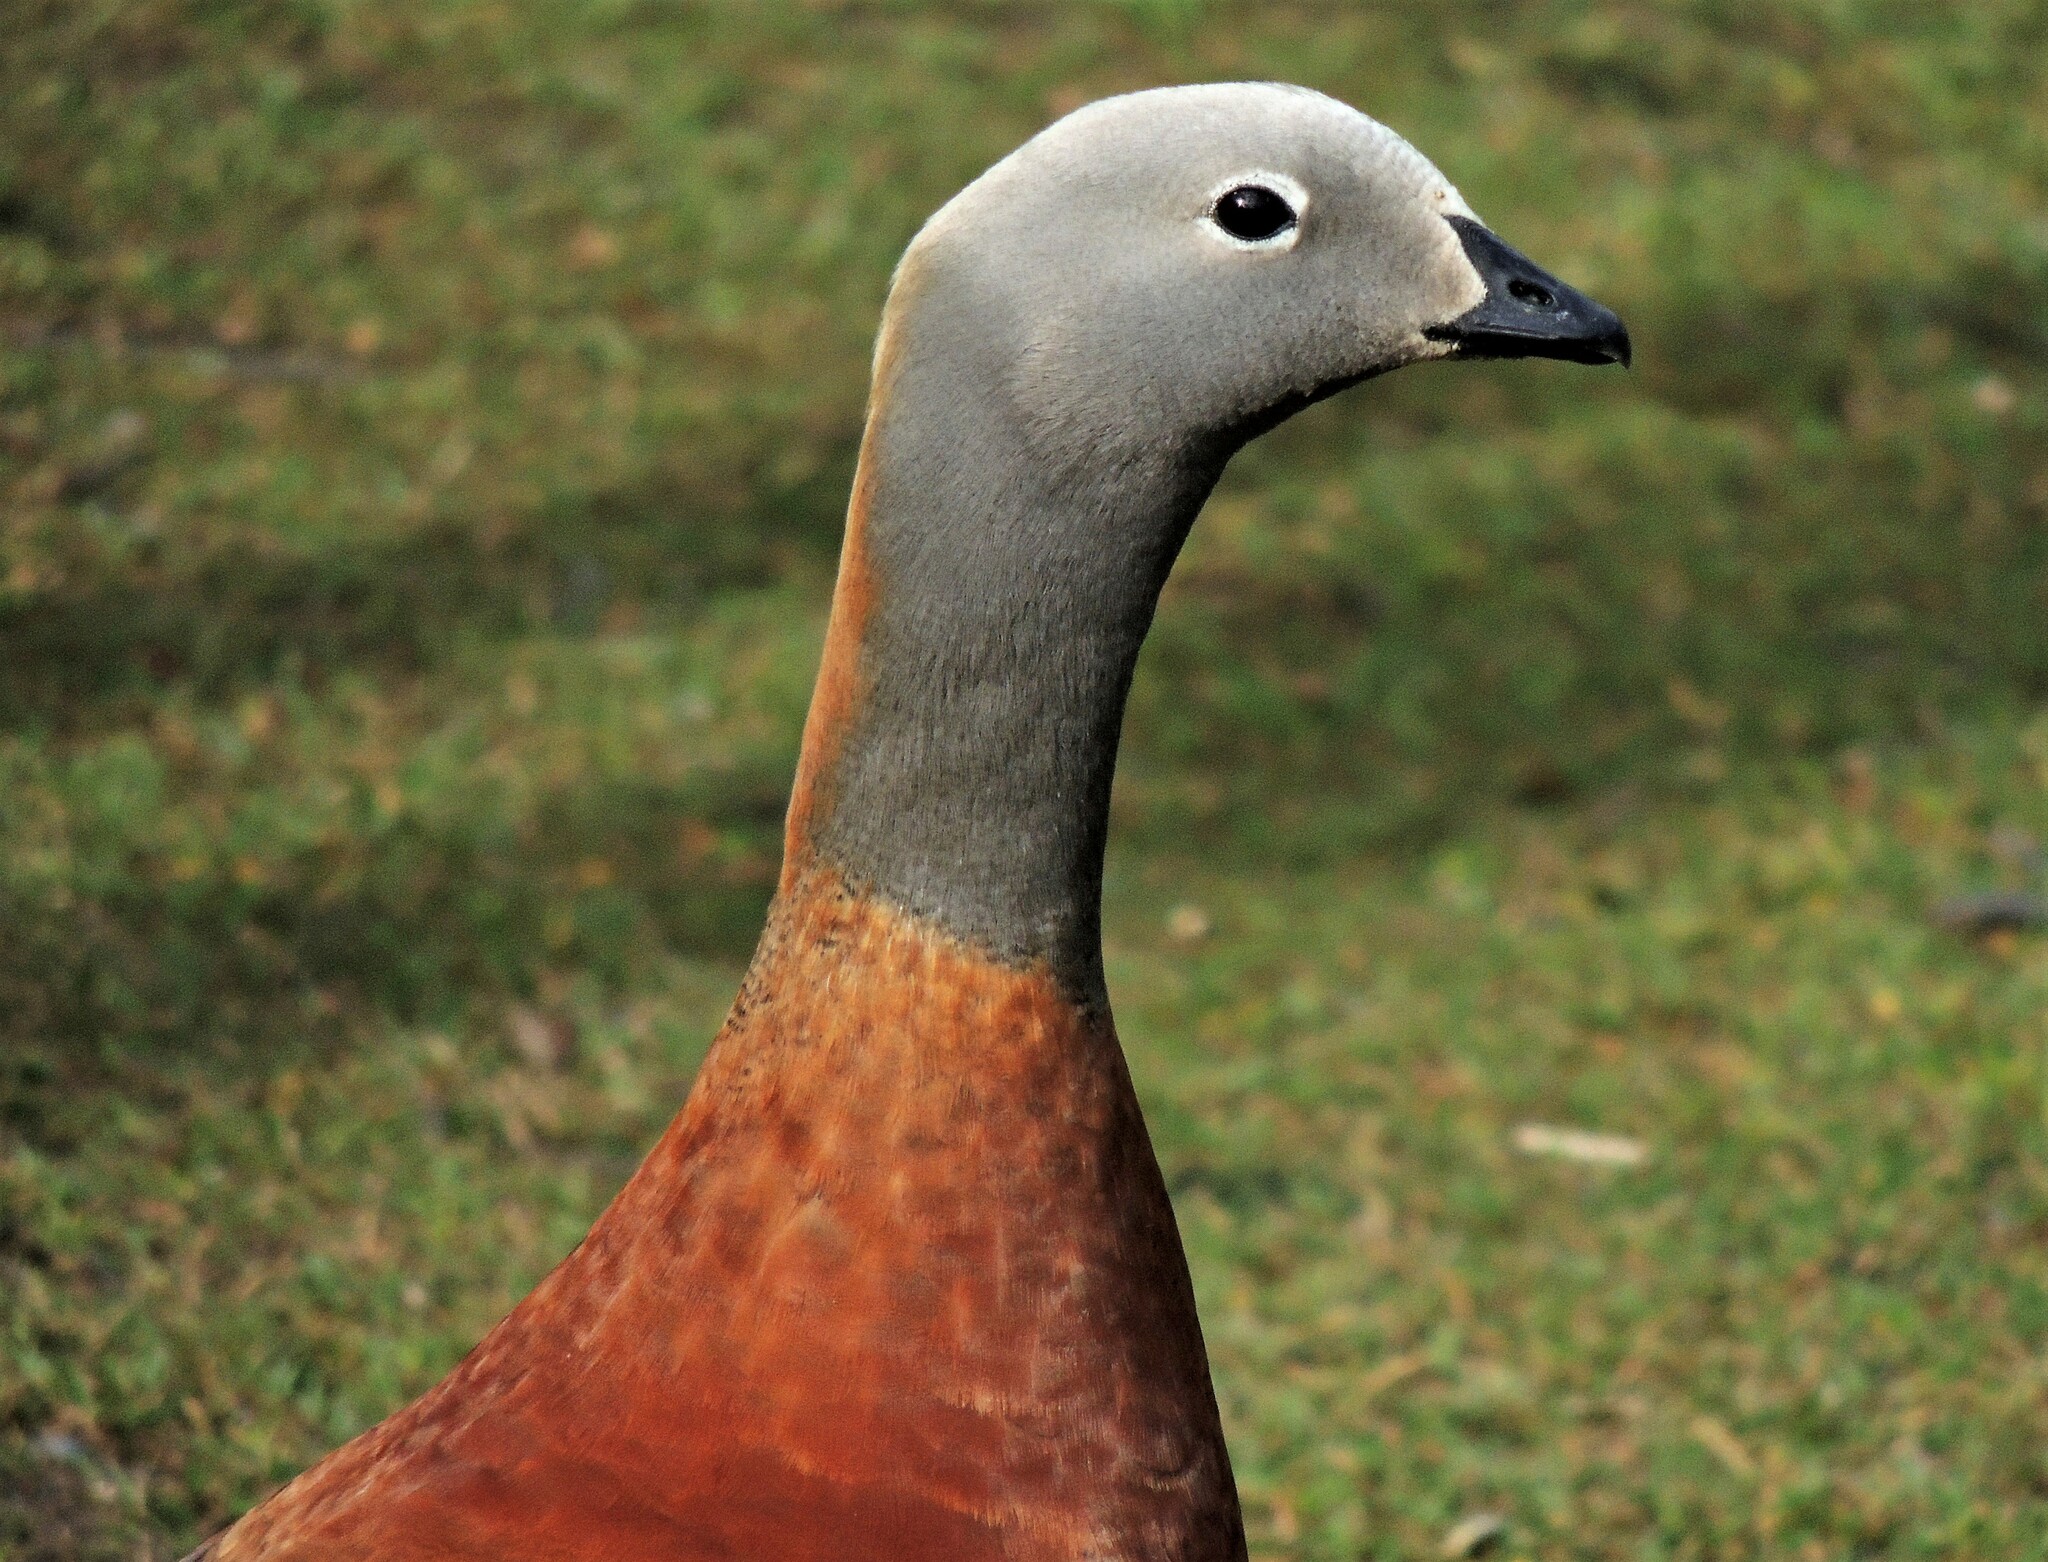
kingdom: Animalia
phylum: Chordata
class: Aves
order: Anseriformes
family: Anatidae
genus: Chloephaga
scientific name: Chloephaga poliocephala
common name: Ashy-headed goose
